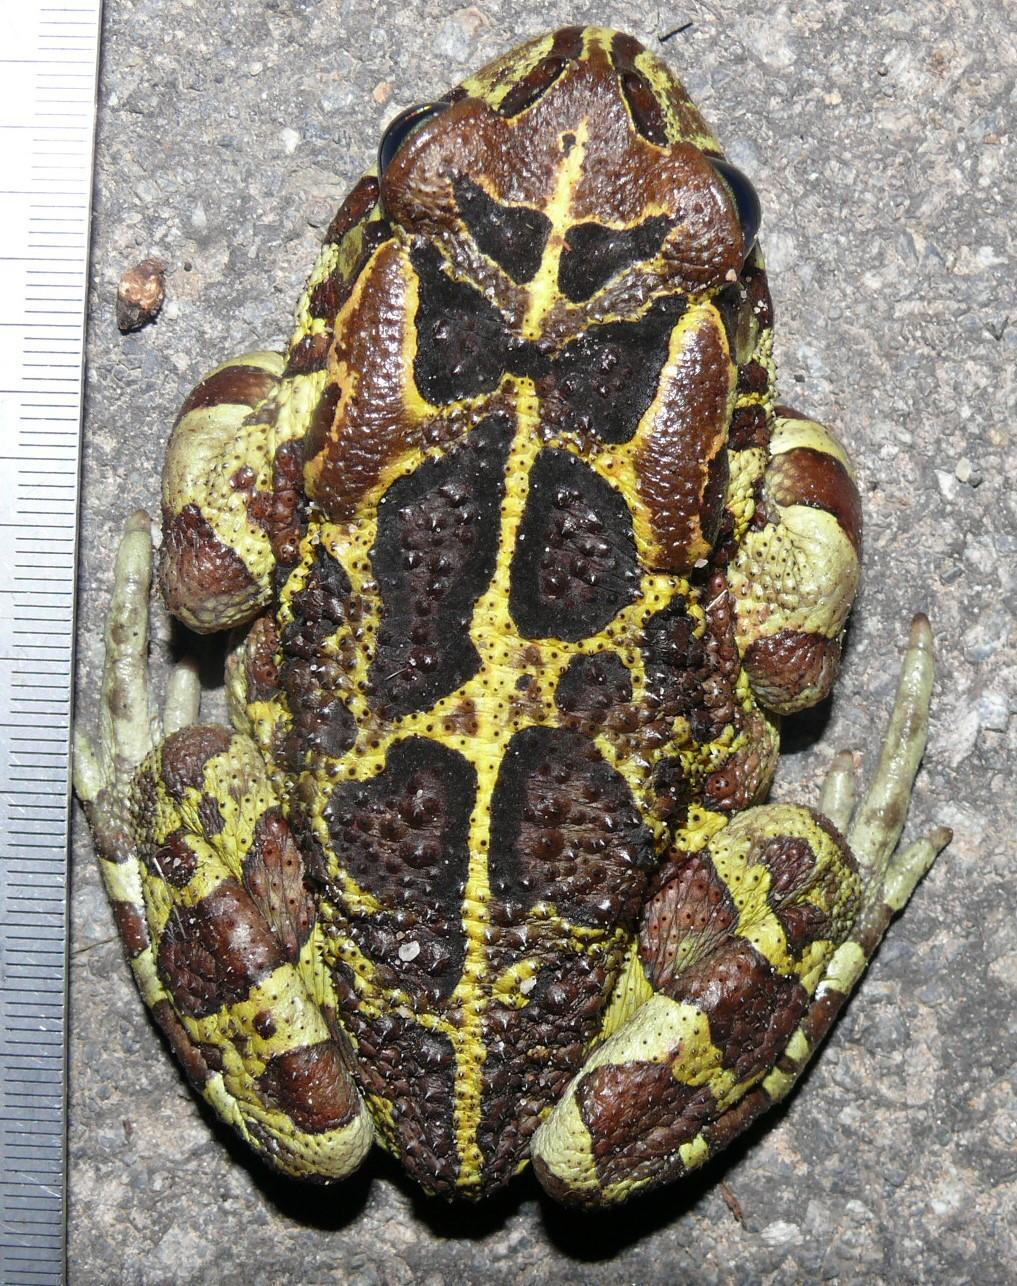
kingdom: Animalia
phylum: Chordata
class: Amphibia
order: Anura
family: Bufonidae
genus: Sclerophrys
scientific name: Sclerophrys pantherina
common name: Panther toad
